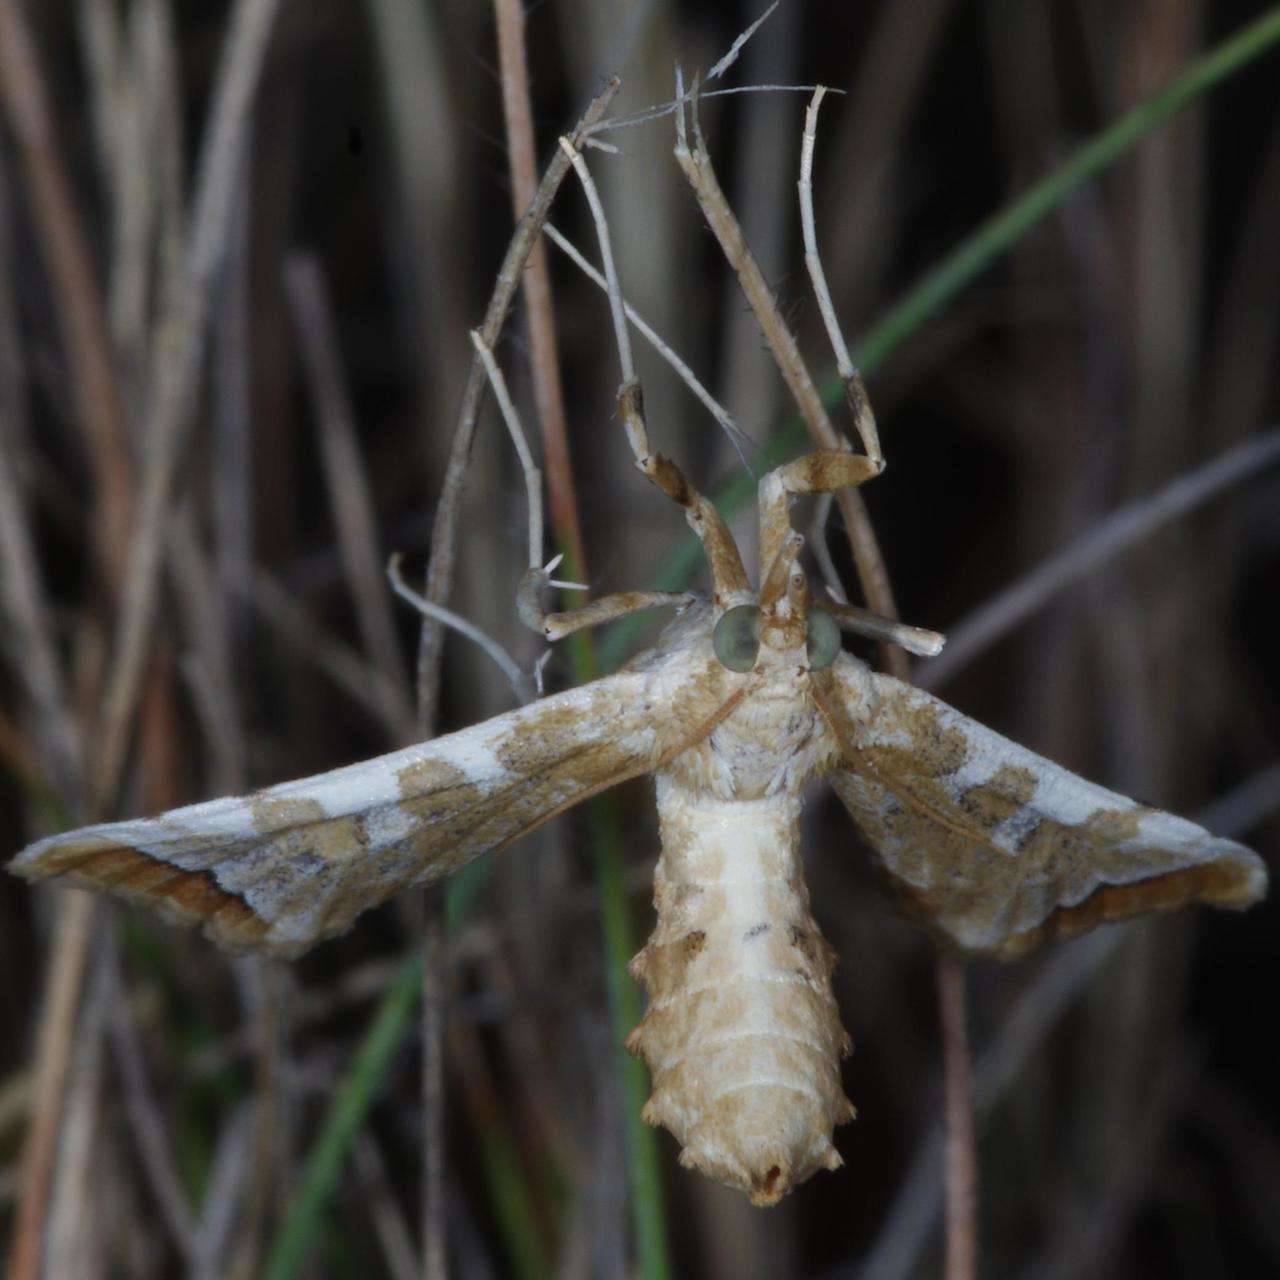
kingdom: Animalia
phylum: Arthropoda
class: Insecta
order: Lepidoptera
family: Crambidae
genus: Sceliodes
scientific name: Sceliodes cordalis
